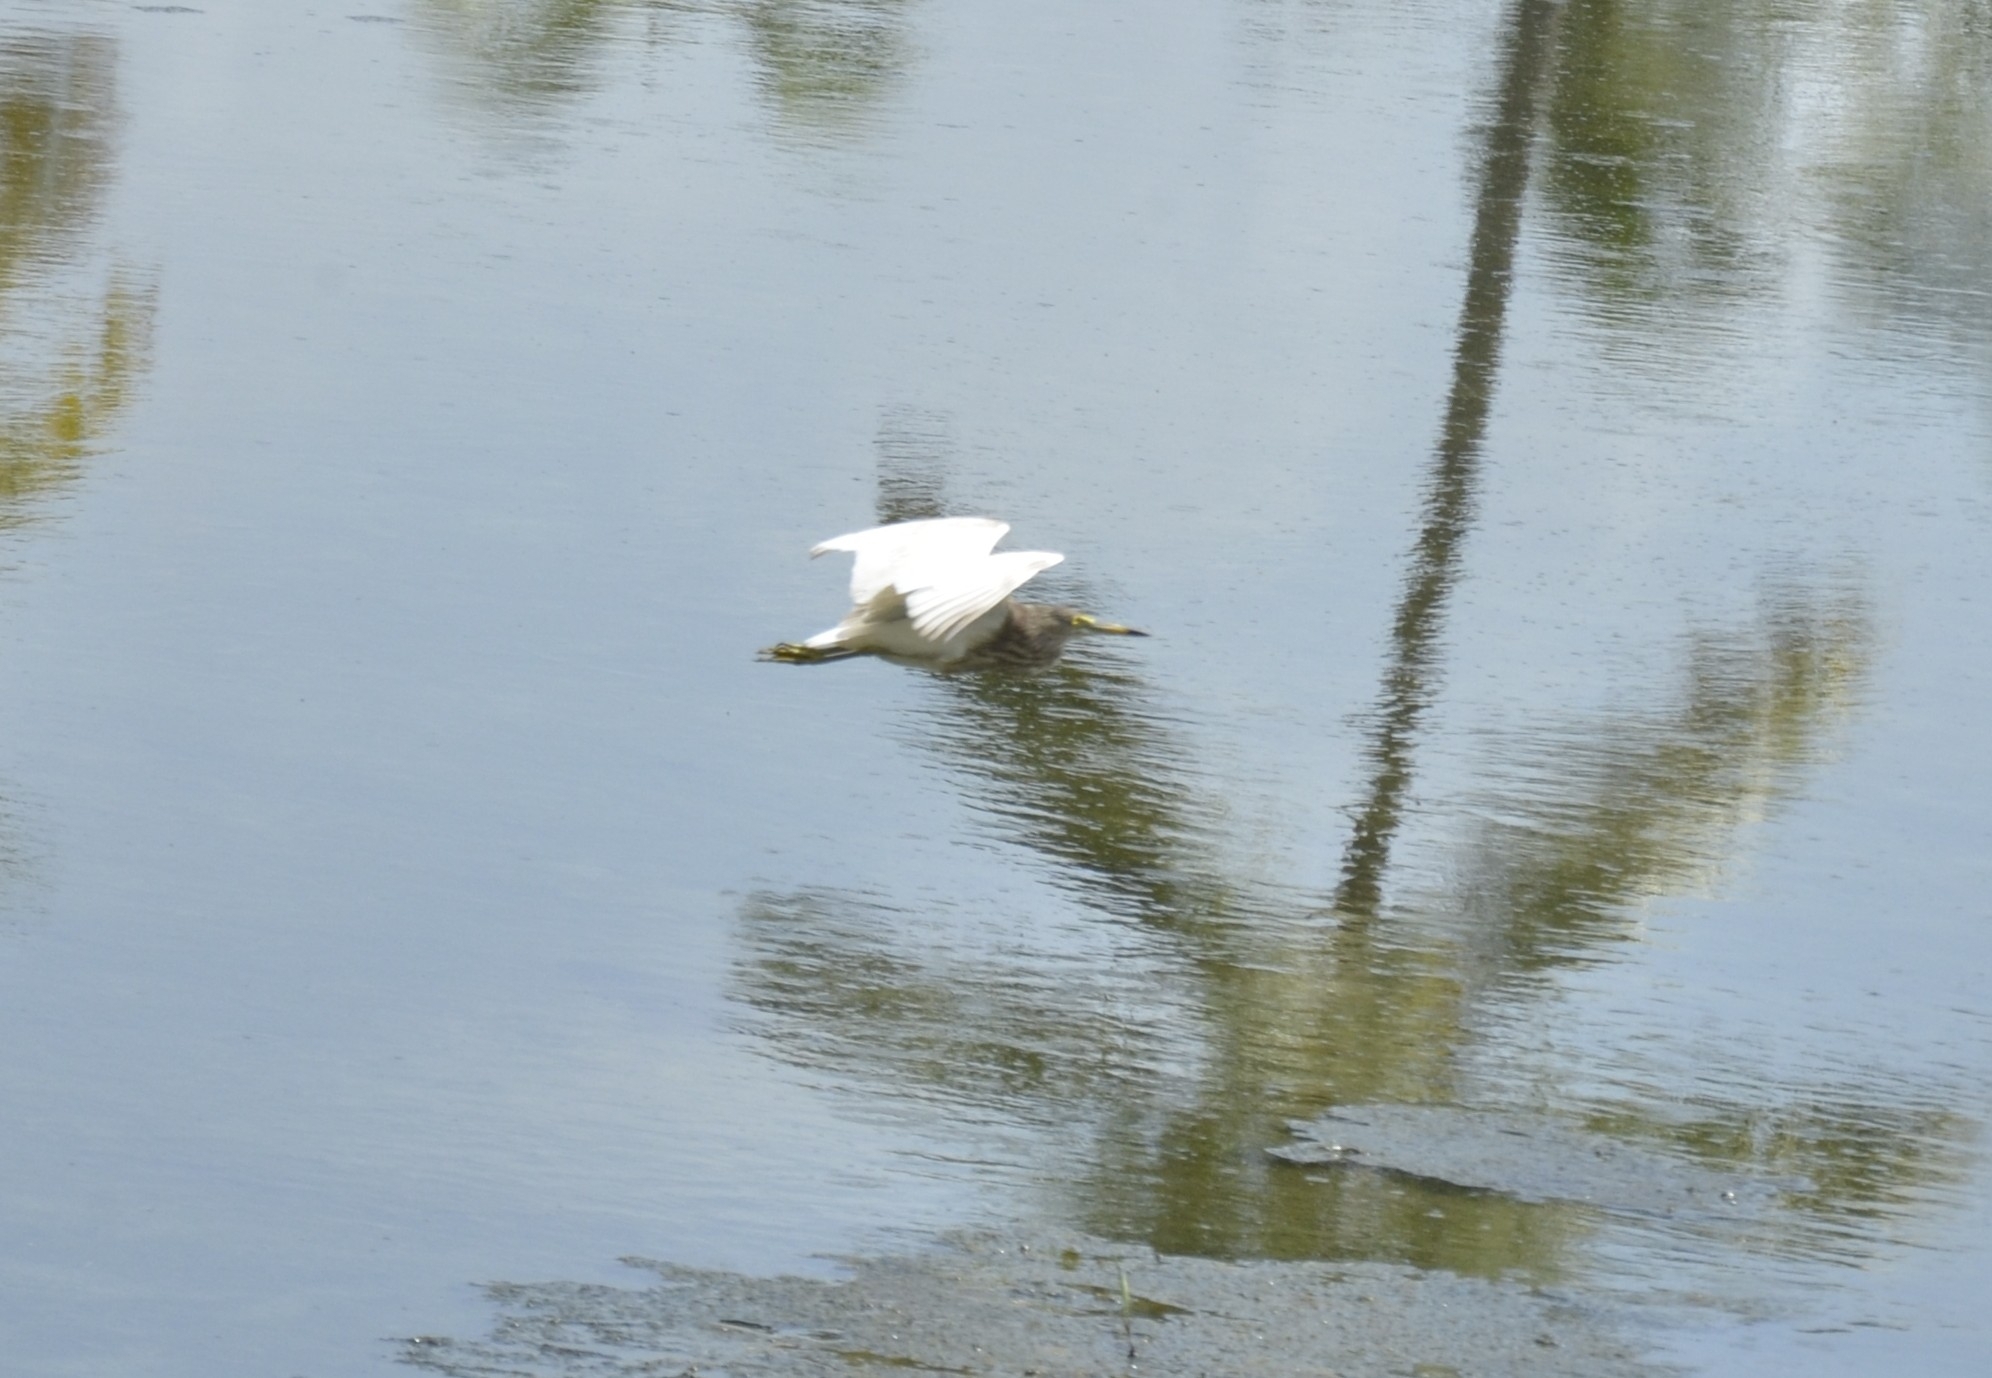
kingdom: Animalia
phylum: Chordata
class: Aves
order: Pelecaniformes
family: Ardeidae
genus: Ardeola
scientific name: Ardeola grayii
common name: Indian pond heron
